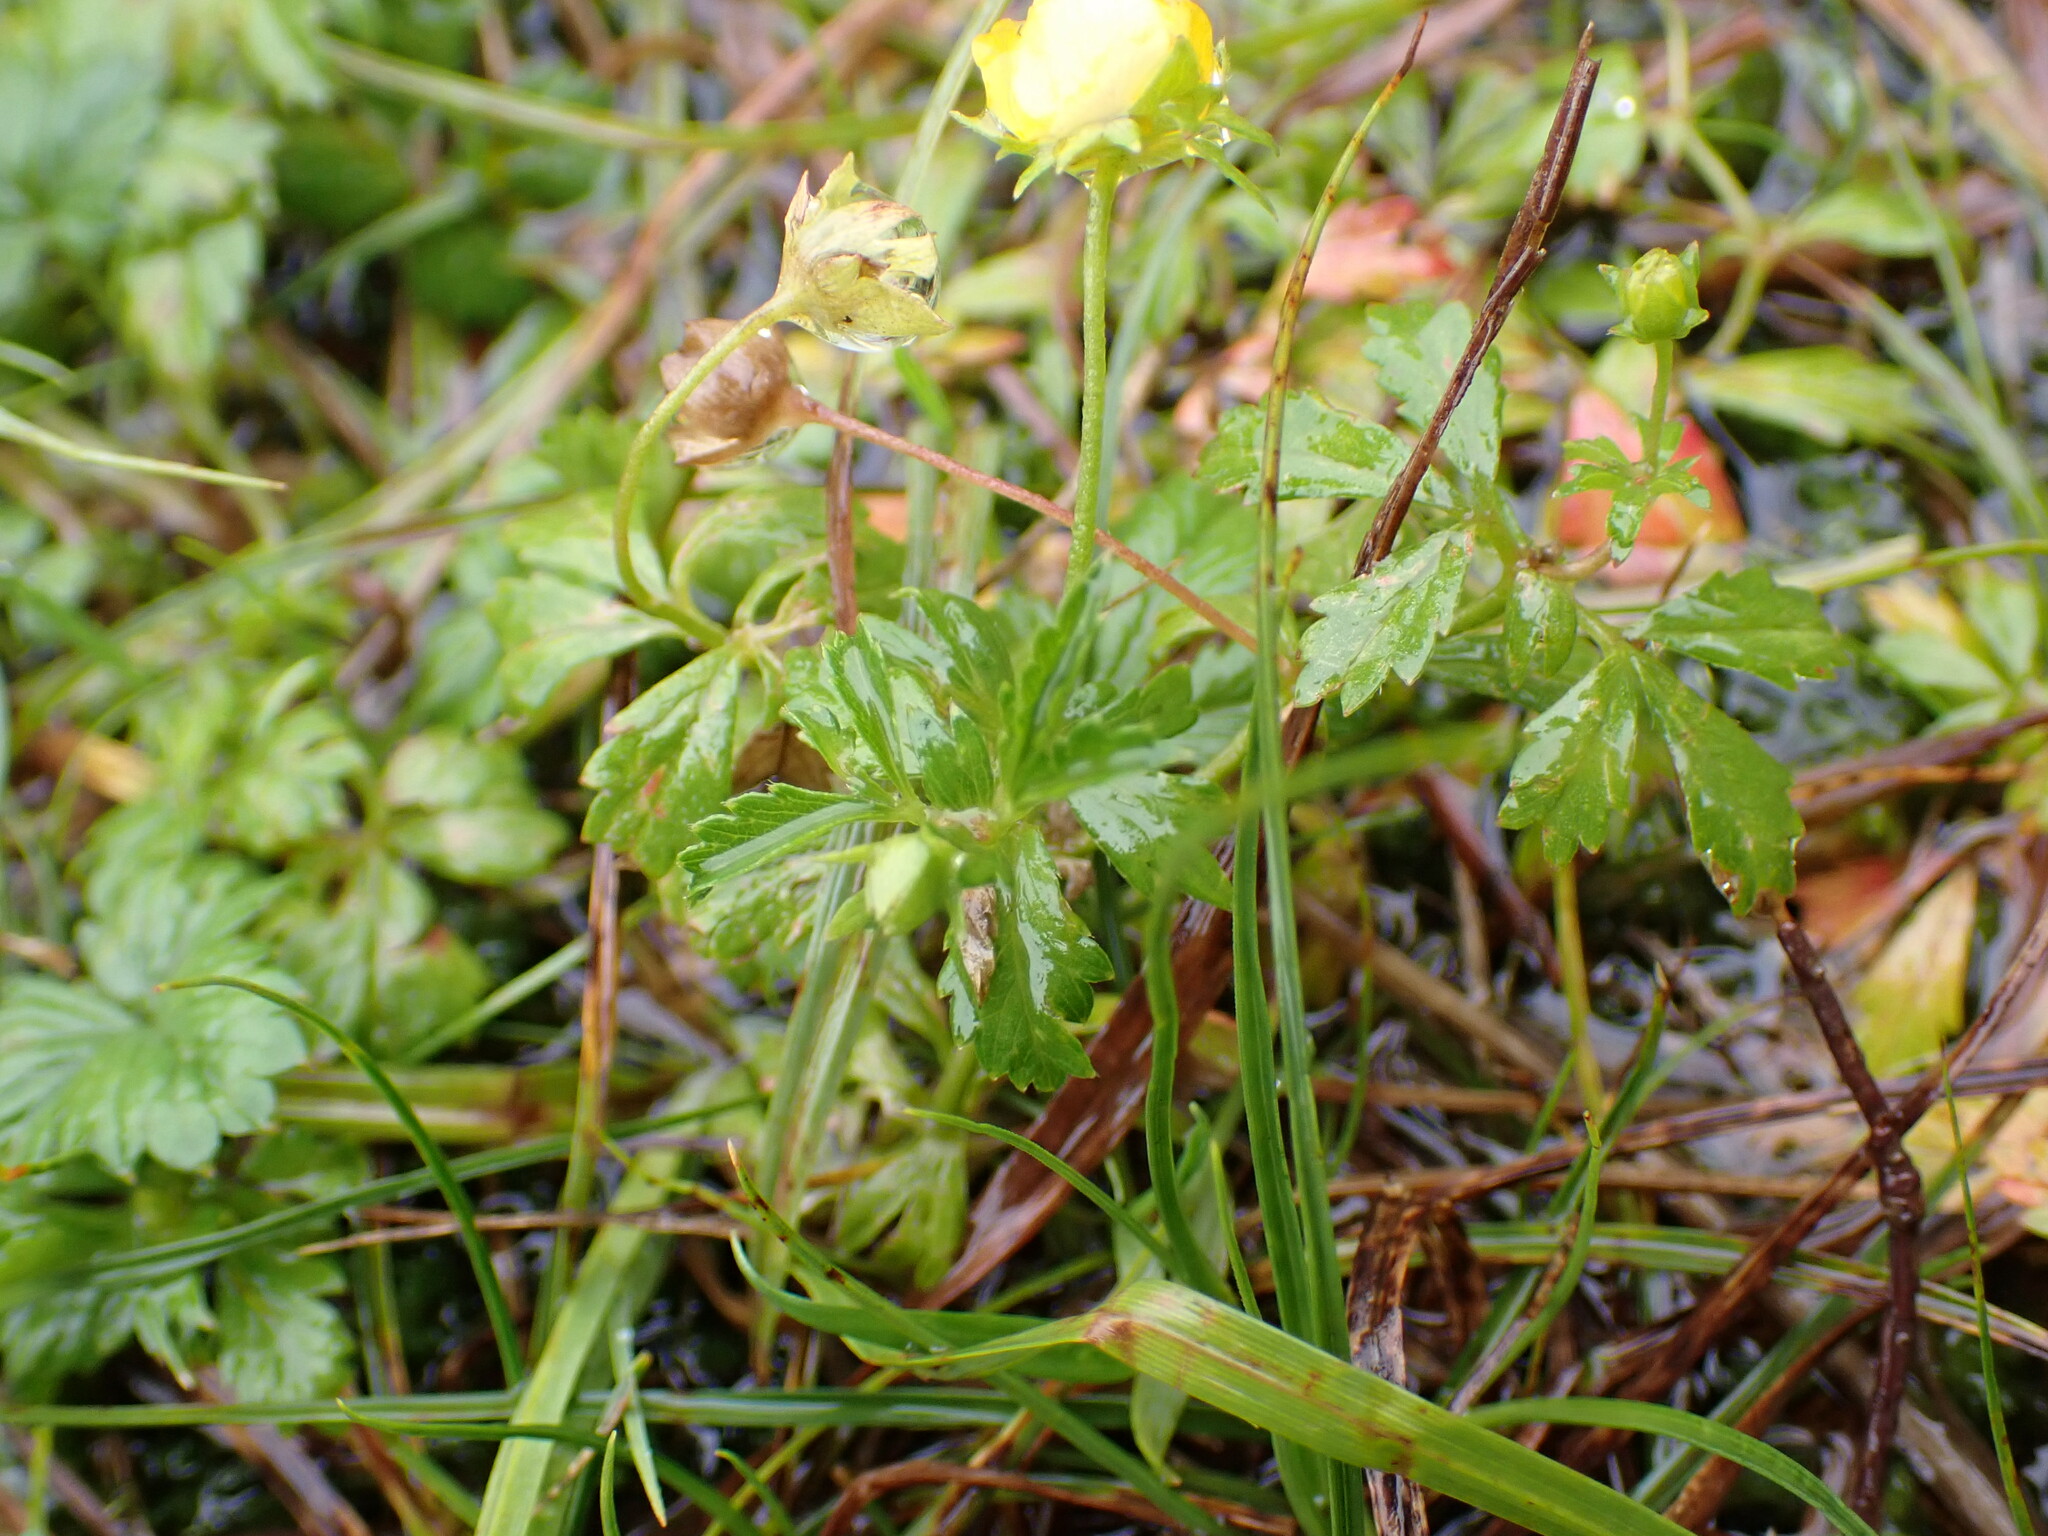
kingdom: Plantae
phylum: Tracheophyta
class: Magnoliopsida
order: Rosales
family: Rosaceae
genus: Potentilla
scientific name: Potentilla norvegica
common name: Ternate-leaved cinquefoil
